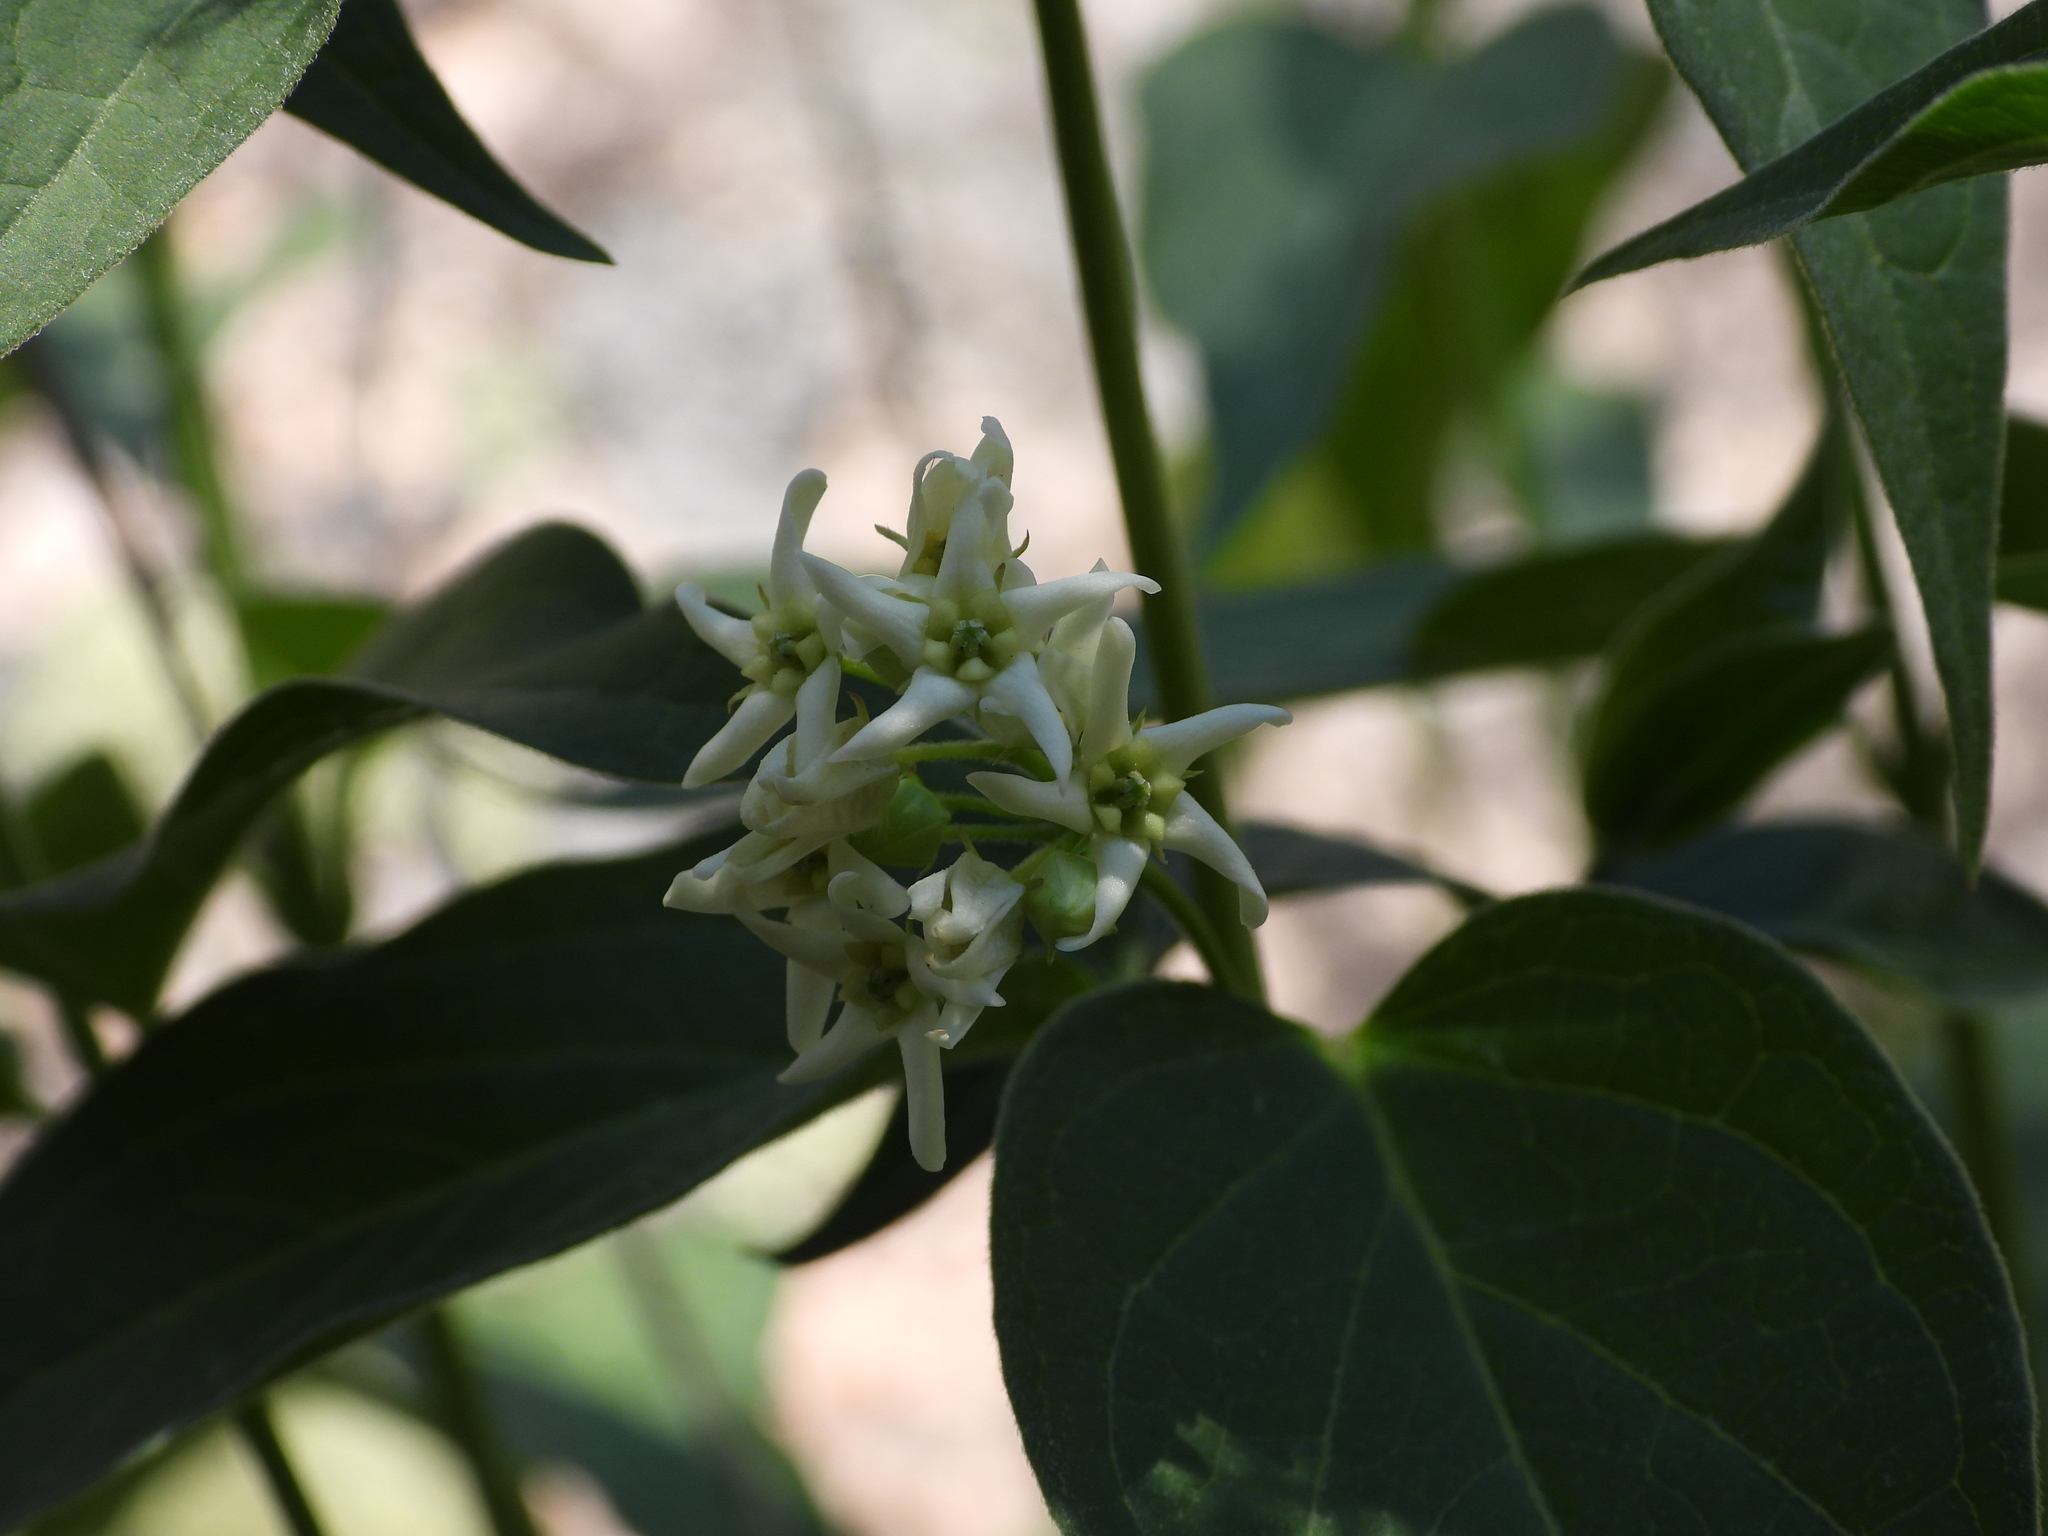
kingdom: Plantae
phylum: Tracheophyta
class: Magnoliopsida
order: Gentianales
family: Apocynaceae
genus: Vincetoxicum
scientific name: Vincetoxicum hirundinaria
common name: White swallowwort
